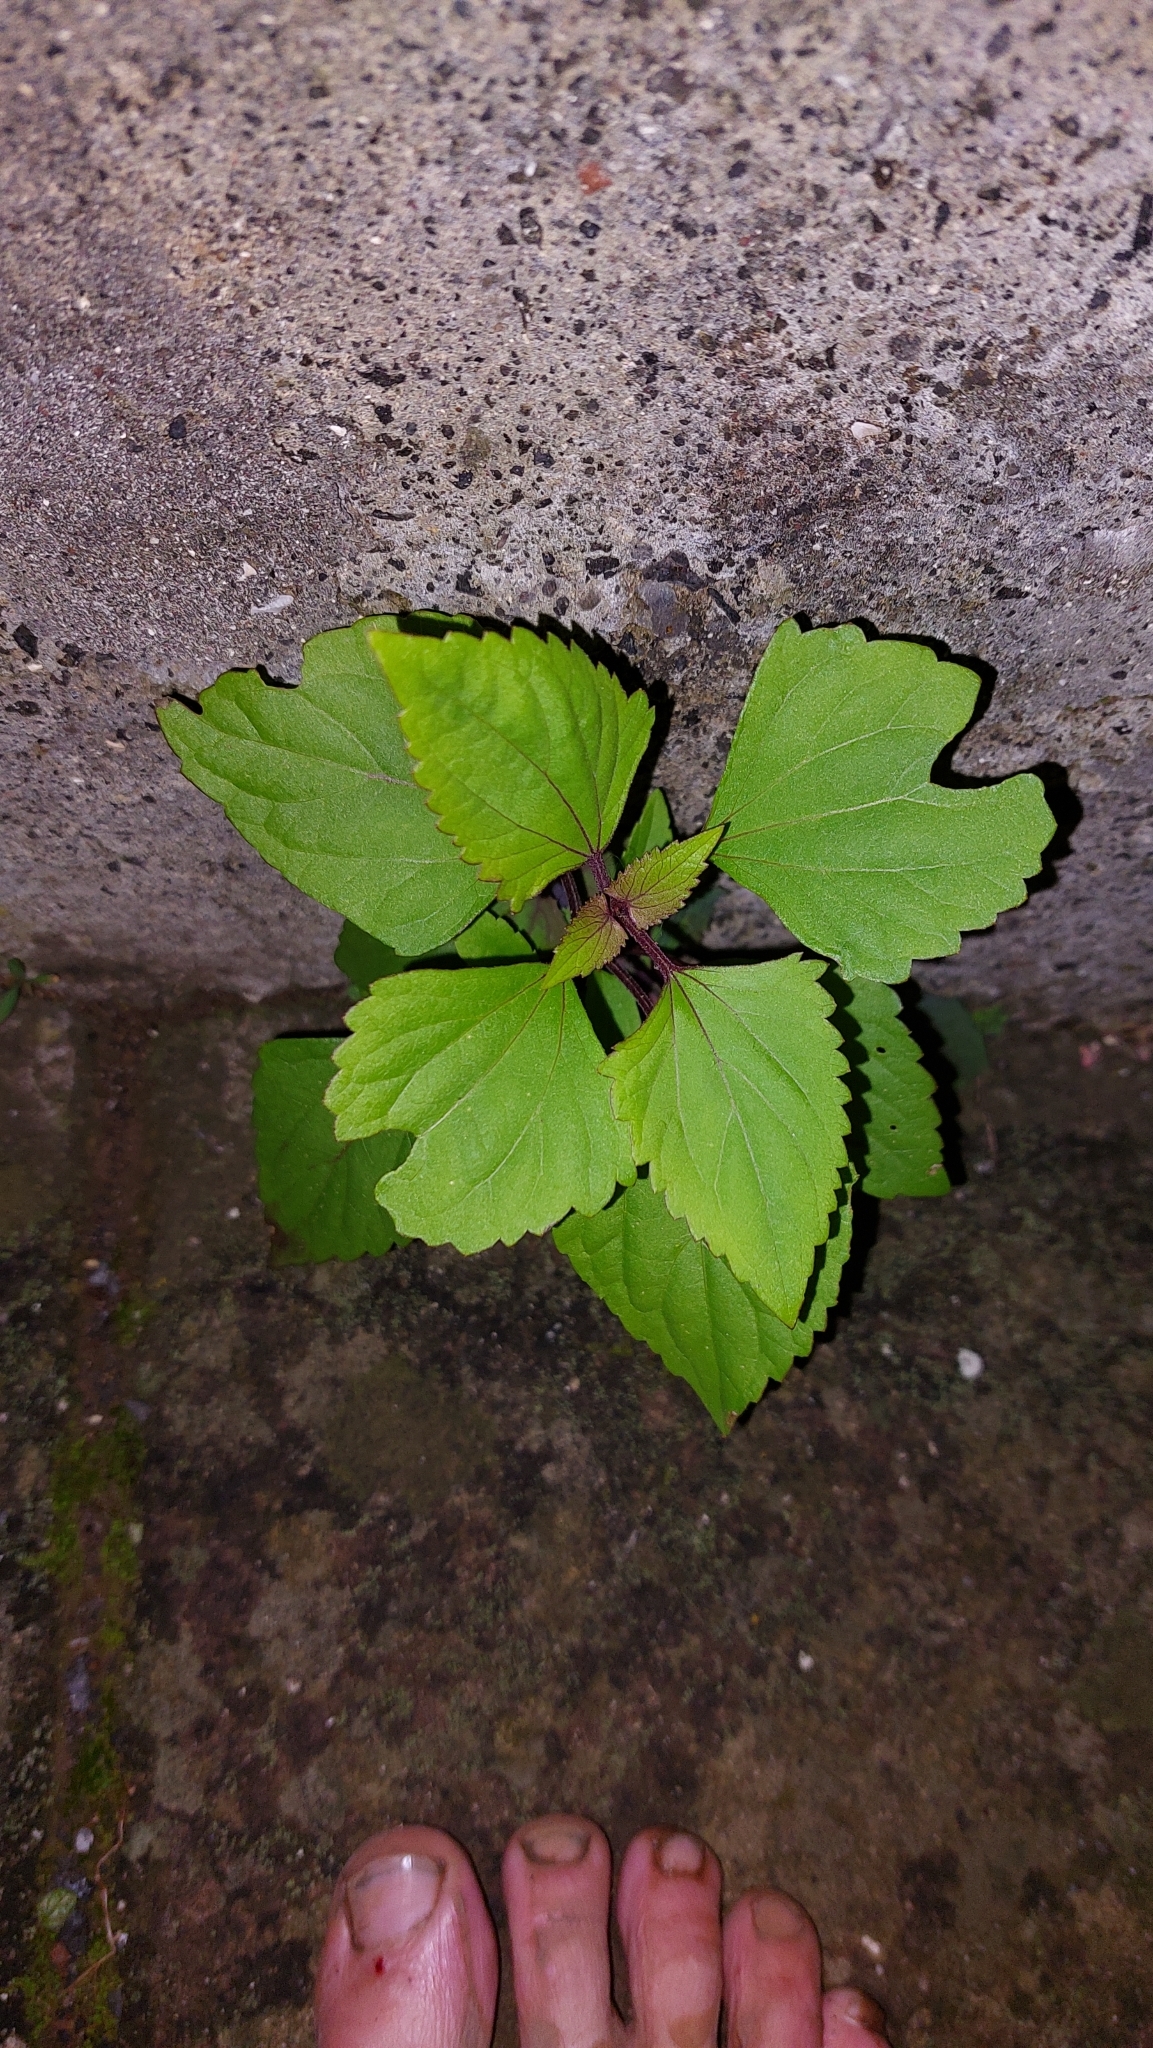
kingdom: Plantae
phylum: Tracheophyta
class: Magnoliopsida
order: Asterales
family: Asteraceae
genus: Ageratina
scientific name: Ageratina adenophora
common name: Sticky snakeroot
